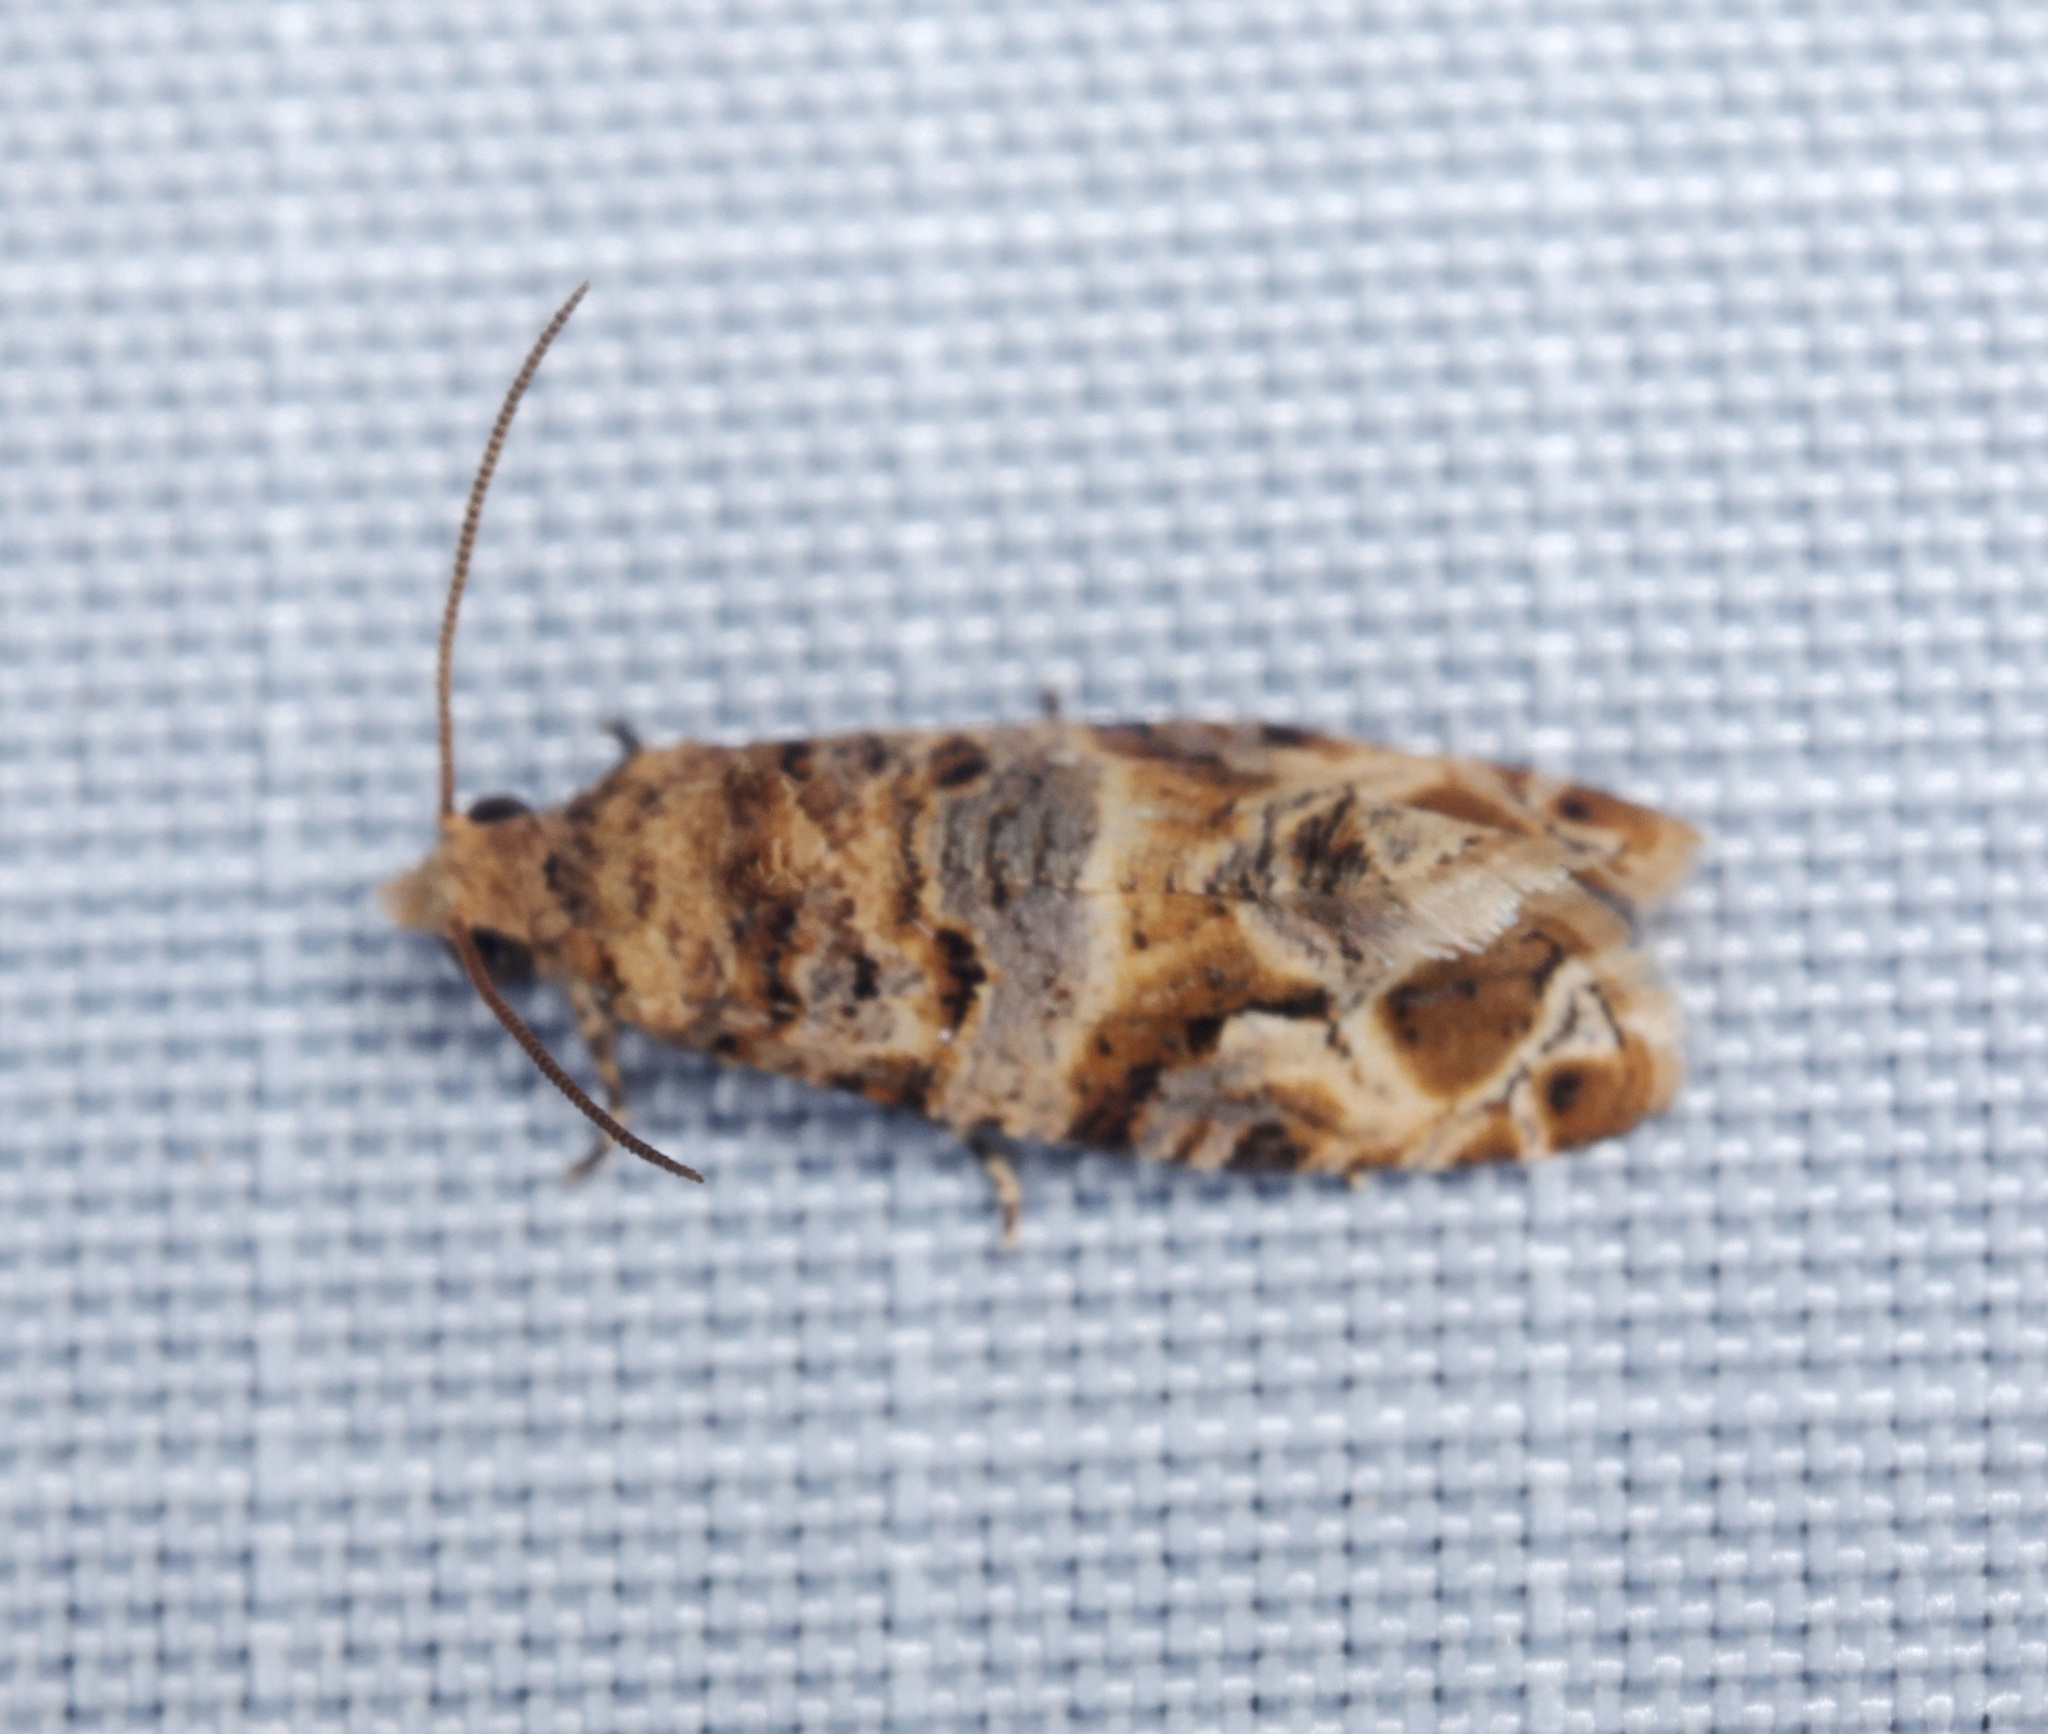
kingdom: Animalia
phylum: Arthropoda
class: Insecta
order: Lepidoptera
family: Tortricidae
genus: Lobesia
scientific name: Lobesia aeolopa
